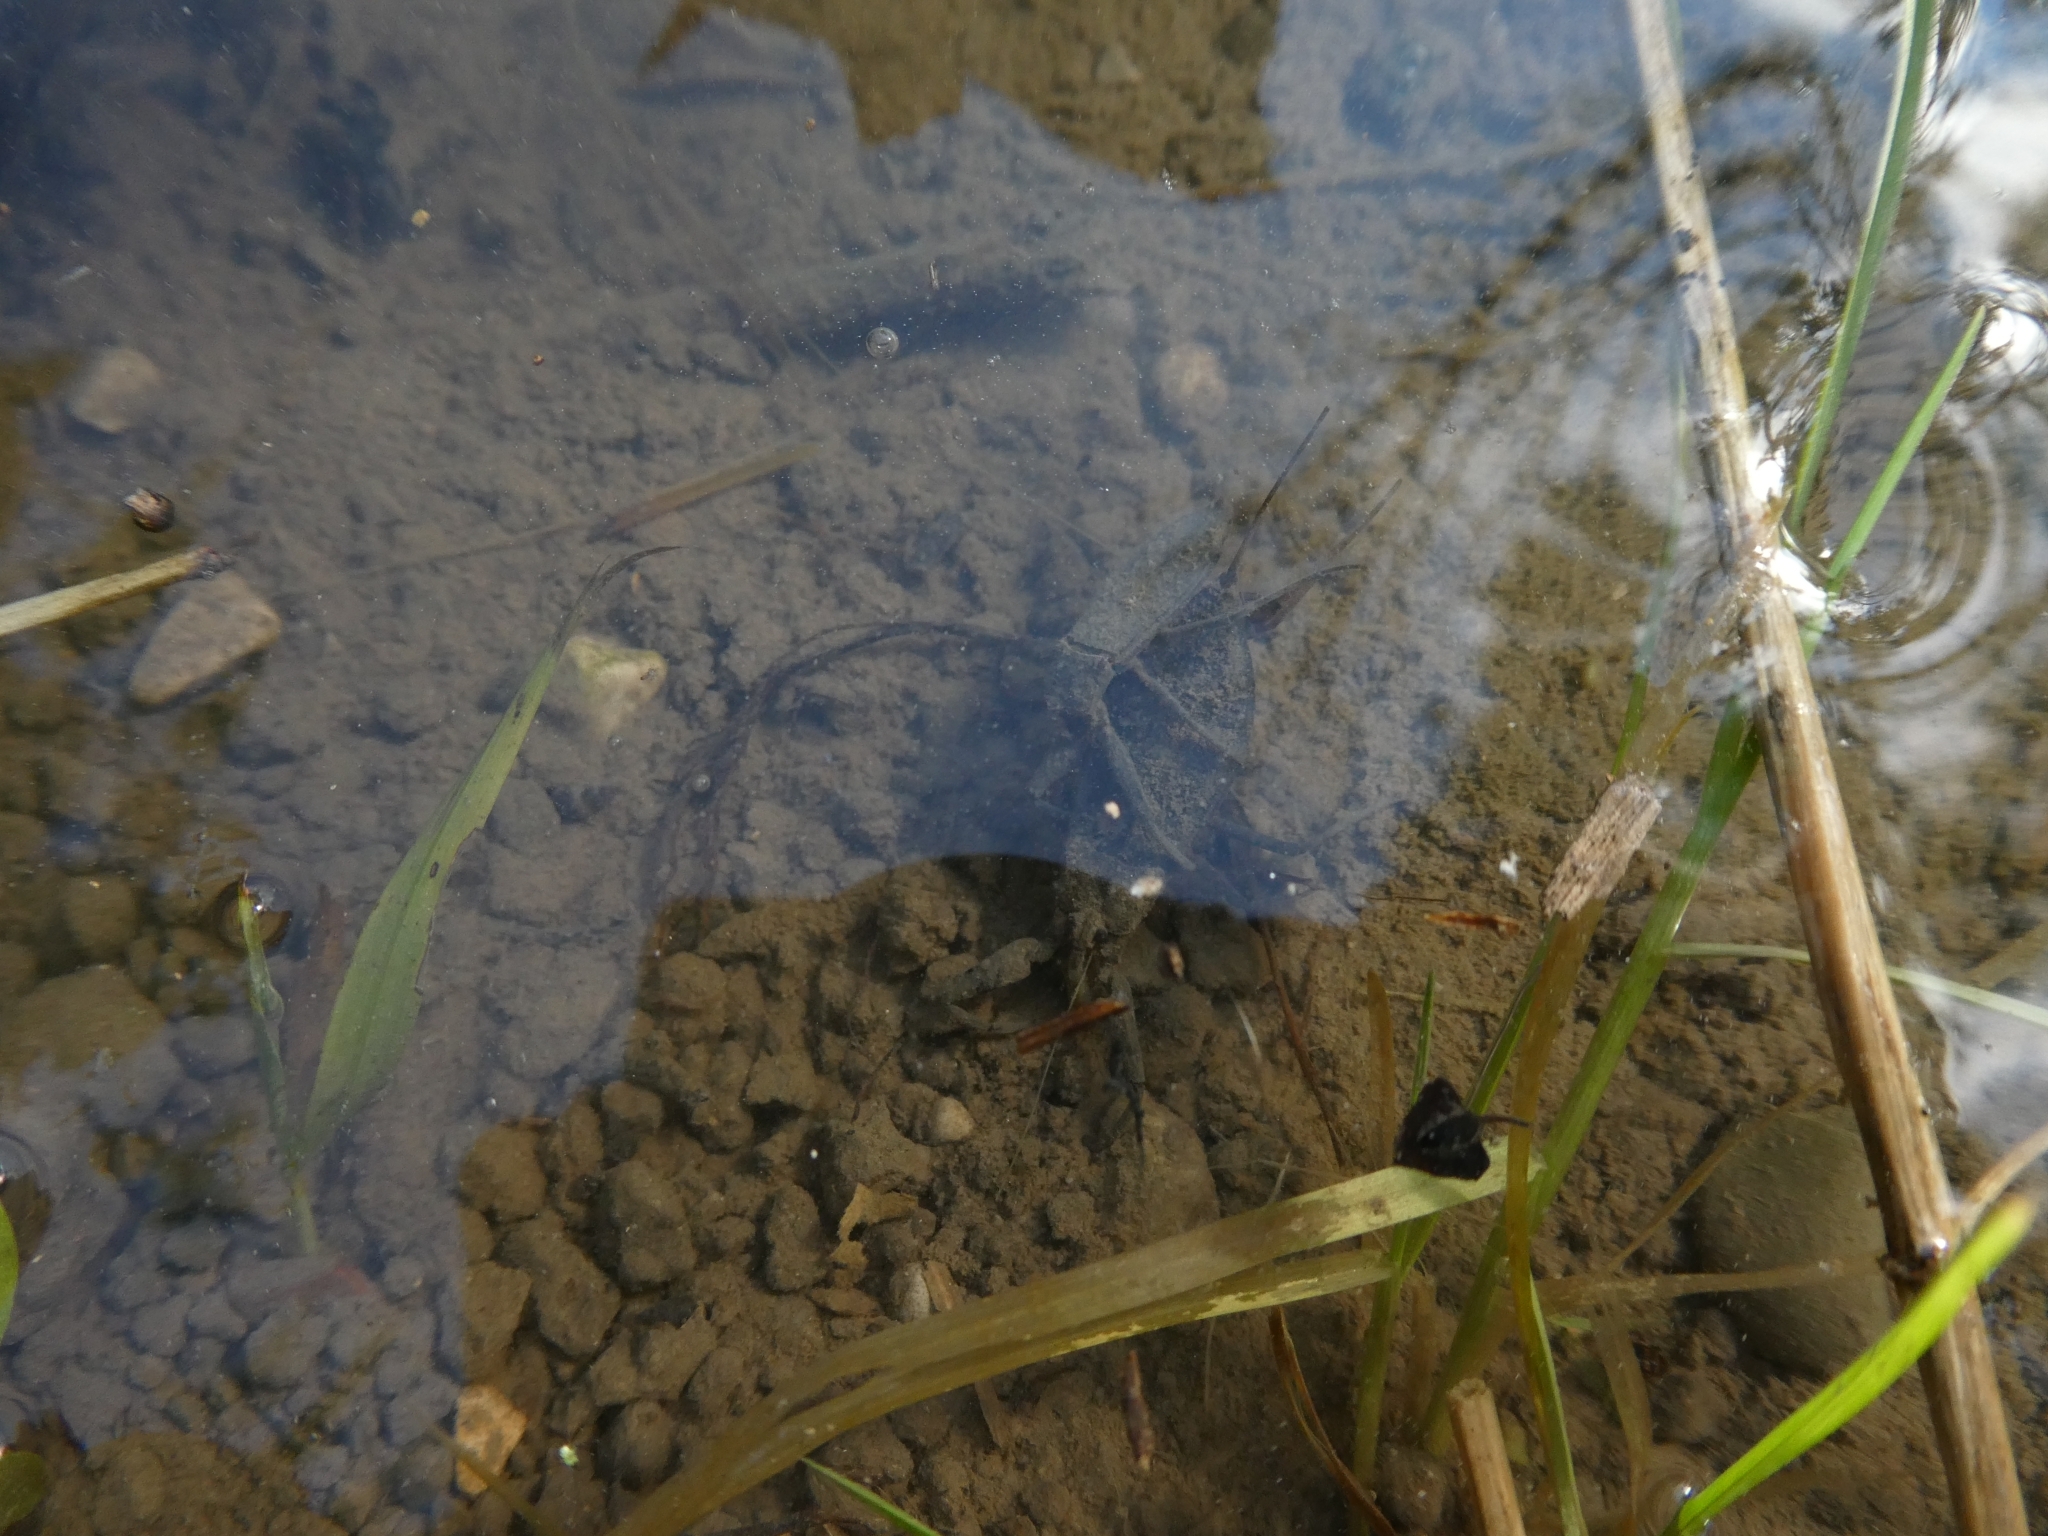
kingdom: Animalia
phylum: Arthropoda
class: Insecta
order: Hemiptera
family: Nepidae
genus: Nepa
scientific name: Nepa cinerea
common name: Water scorpion
